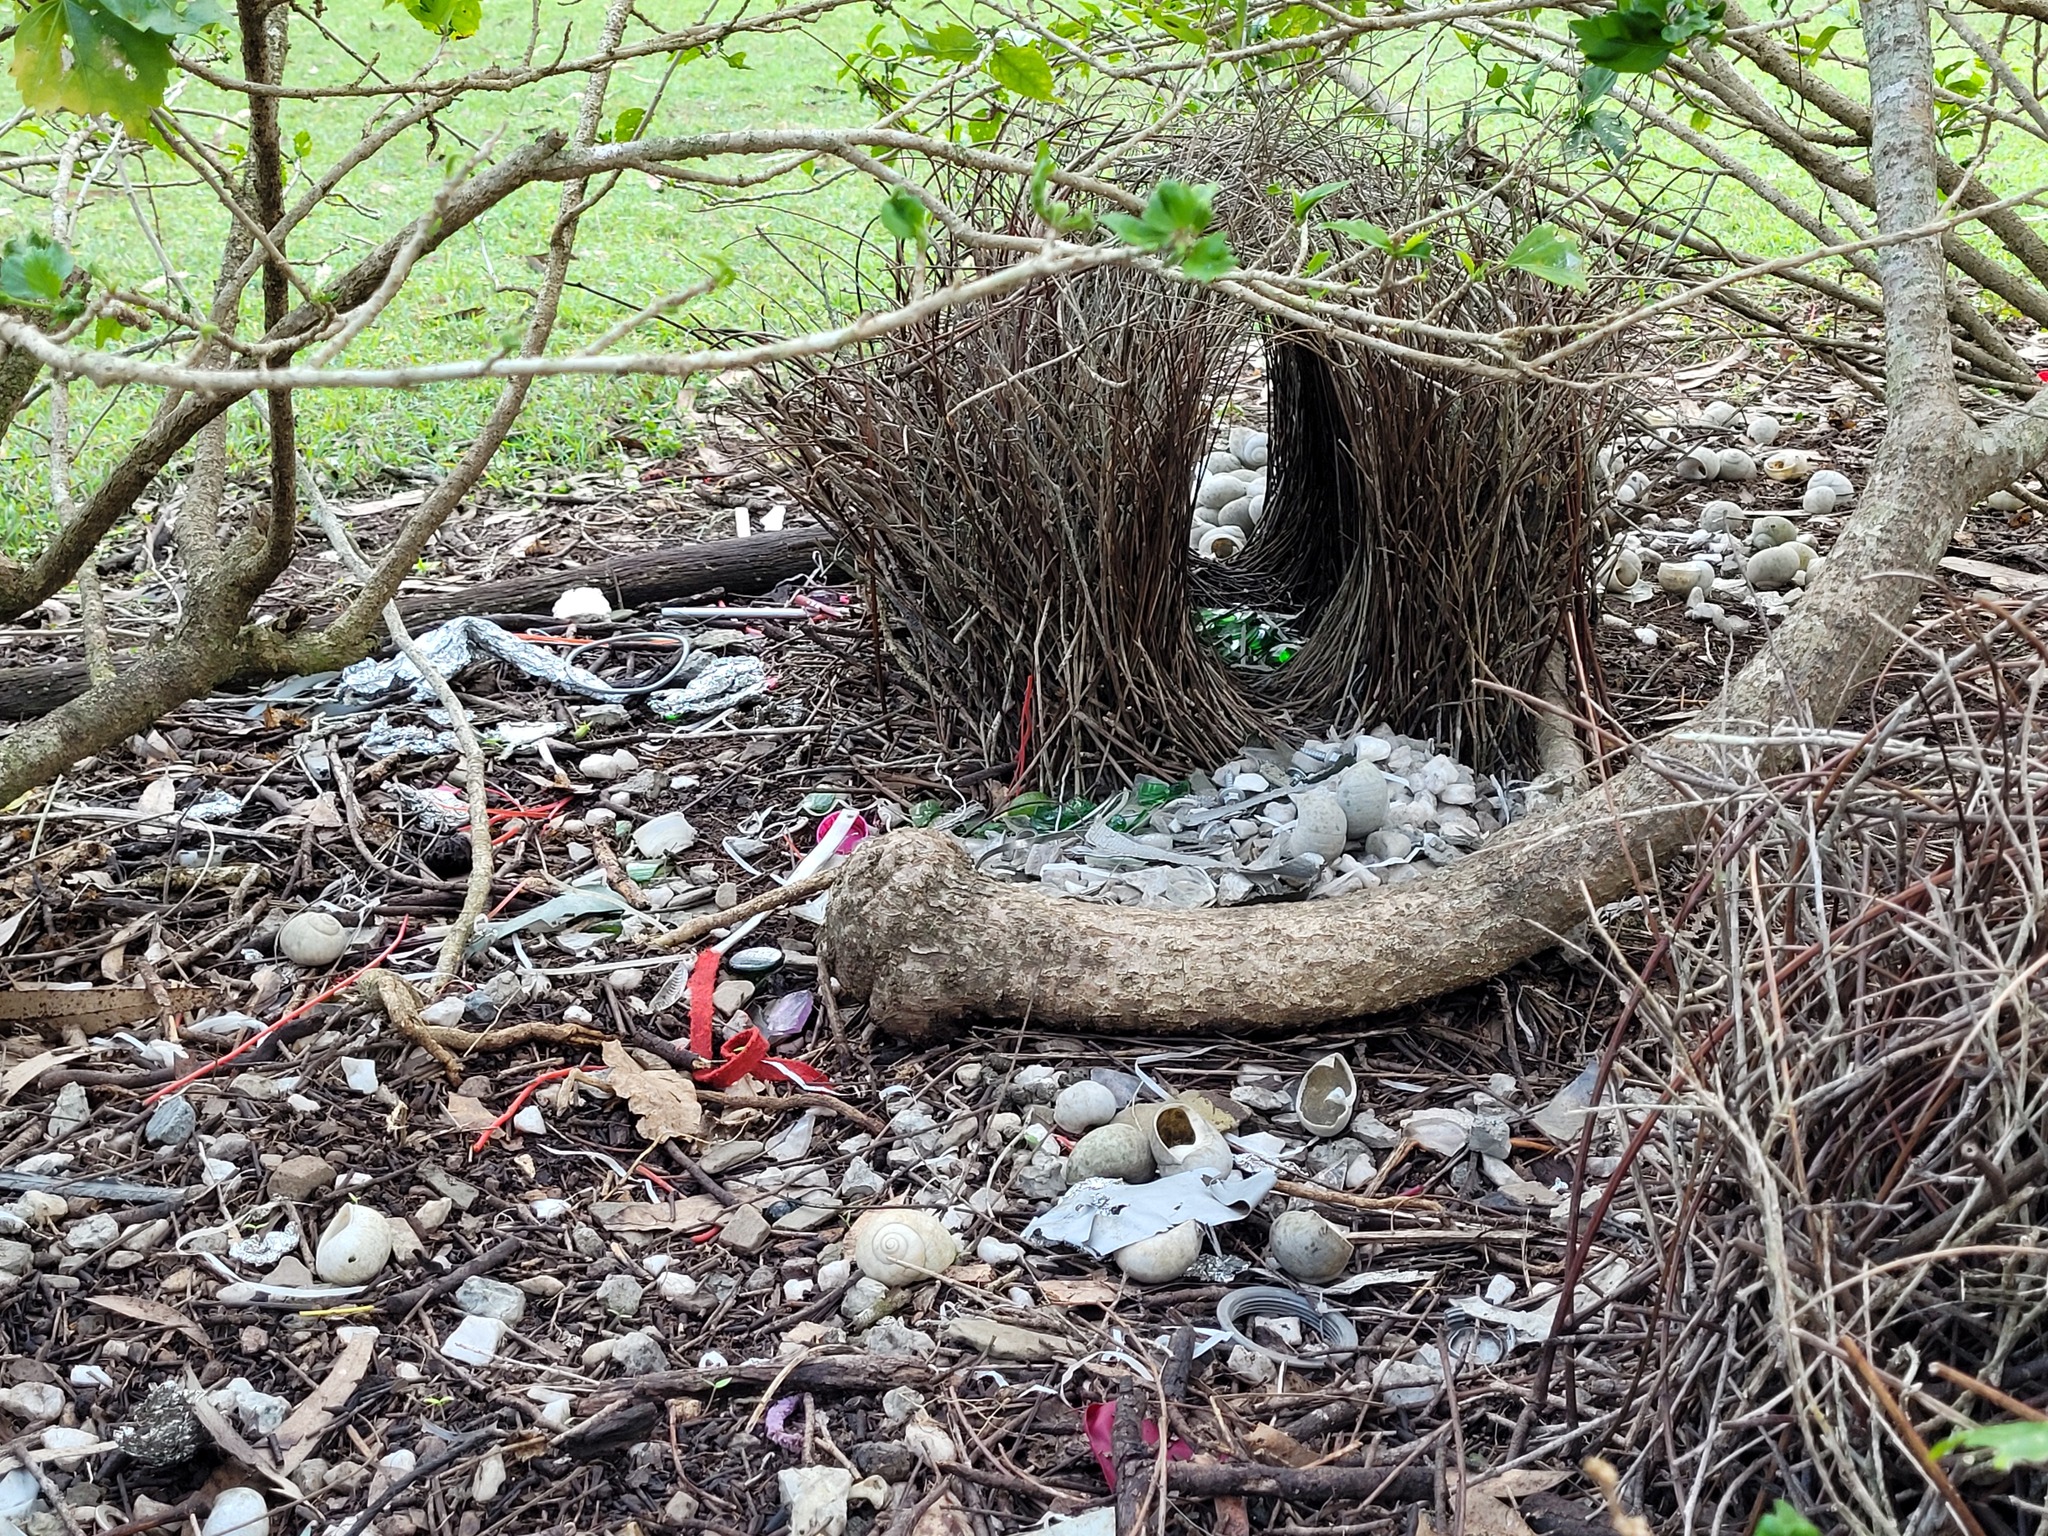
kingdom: Animalia
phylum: Chordata
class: Aves
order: Passeriformes
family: Ptilonorhynchidae
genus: Chlamydera
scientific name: Chlamydera nuchalis
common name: Great bowerbird
